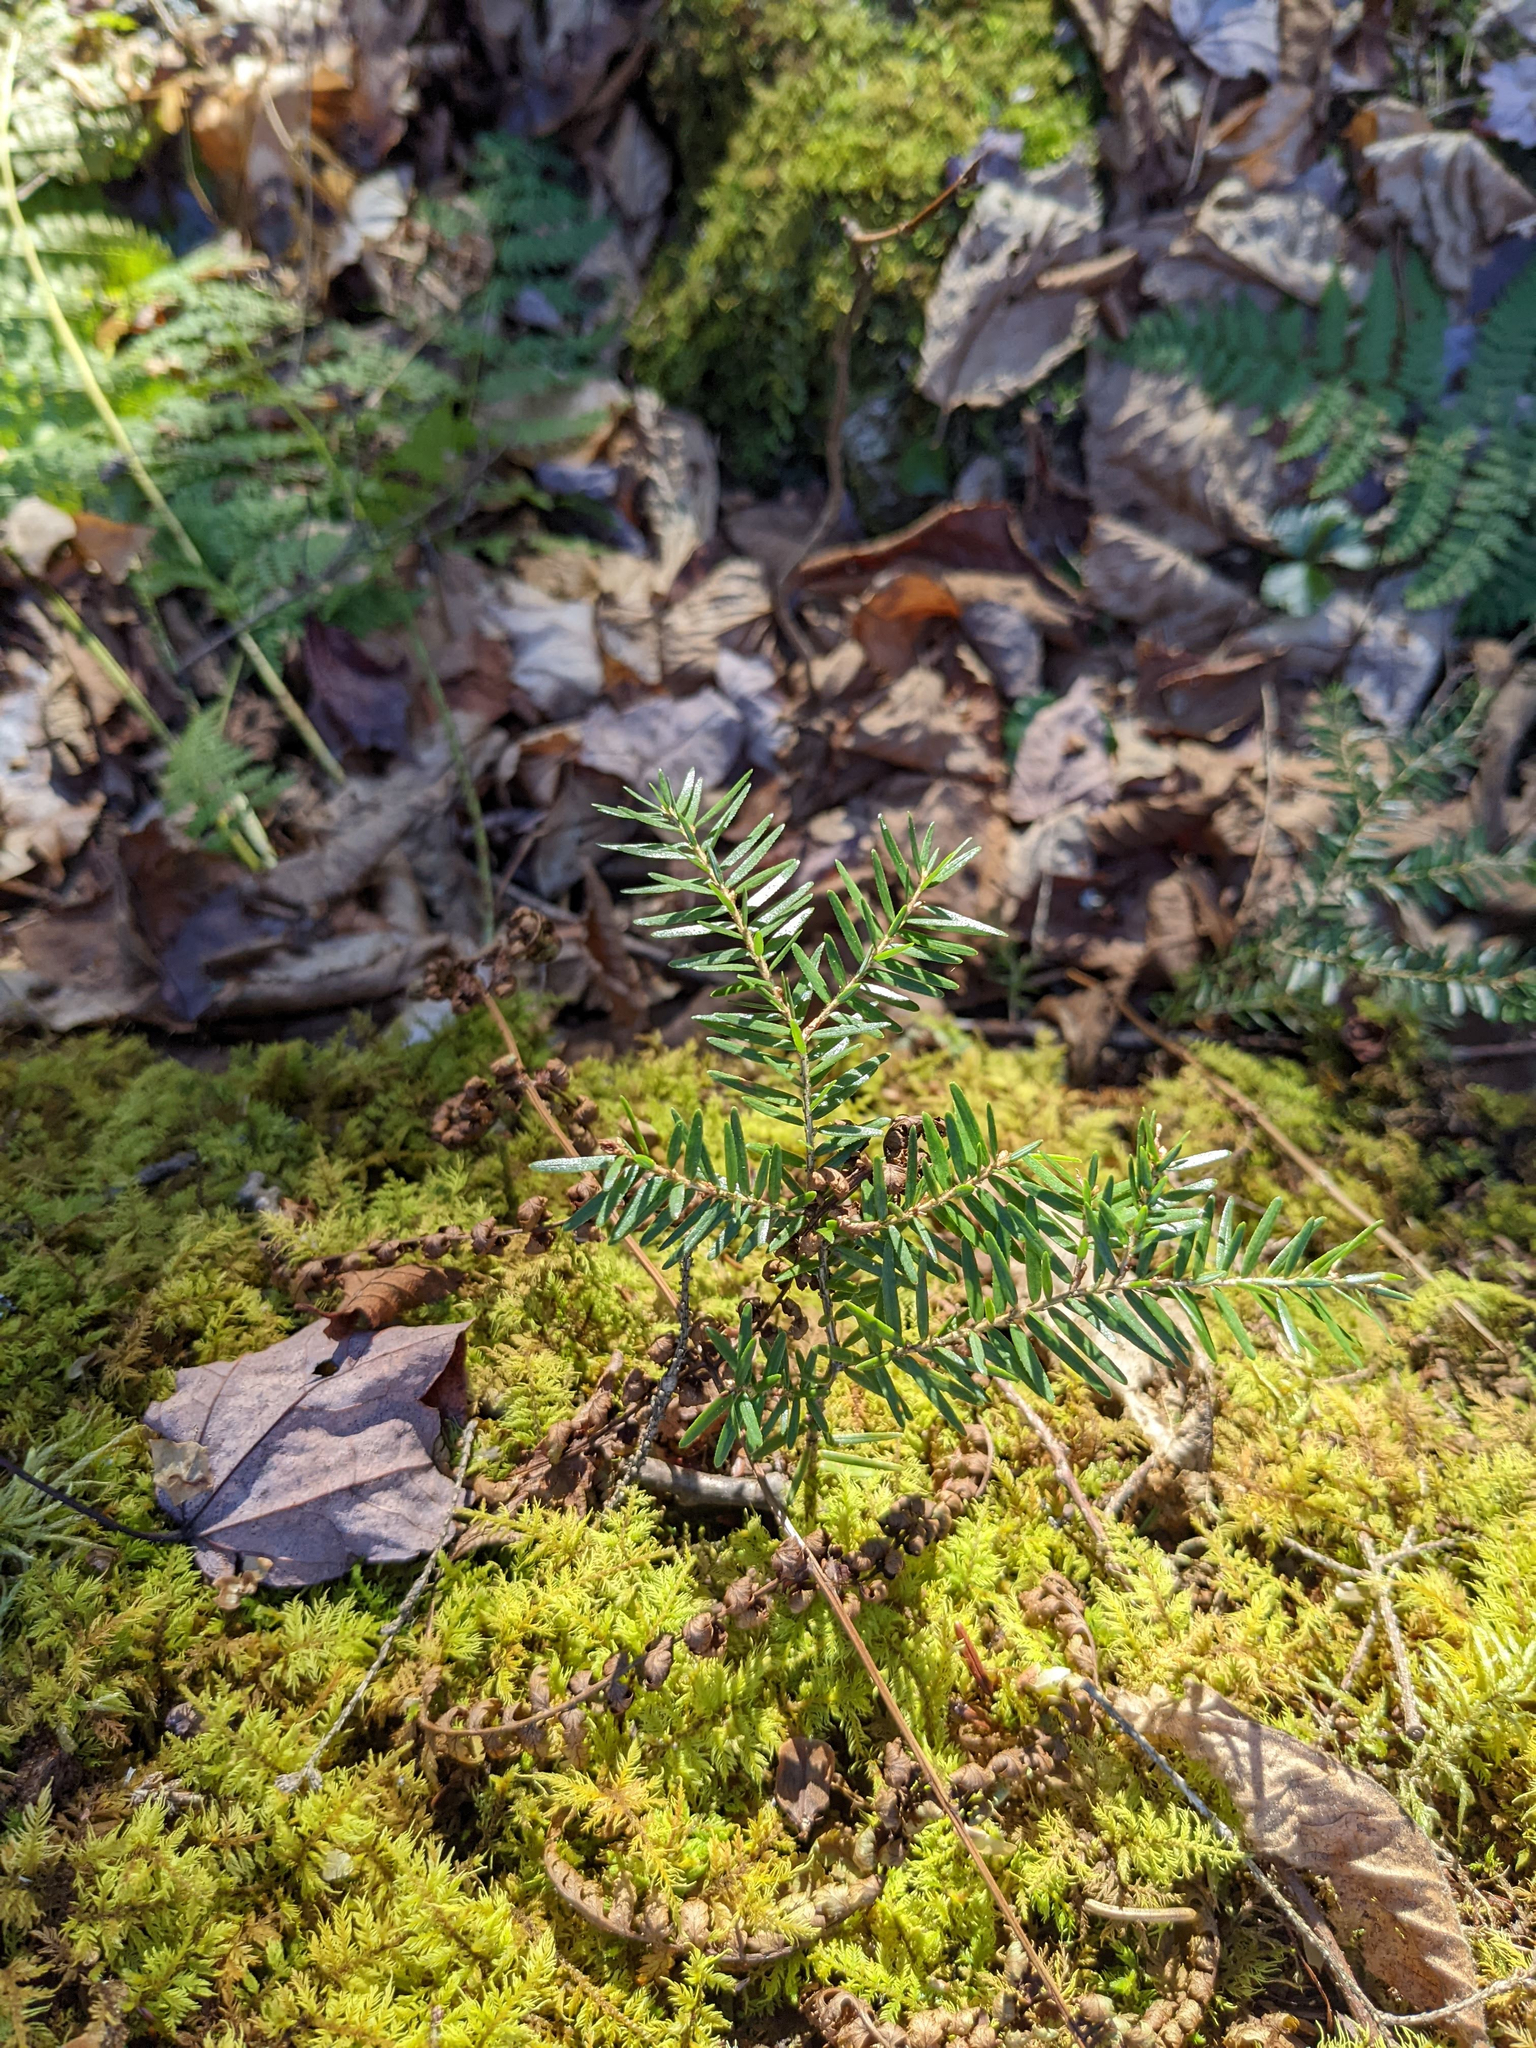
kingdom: Plantae
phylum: Tracheophyta
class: Pinopsida
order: Pinales
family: Pinaceae
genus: Tsuga
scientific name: Tsuga canadensis
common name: Eastern hemlock
